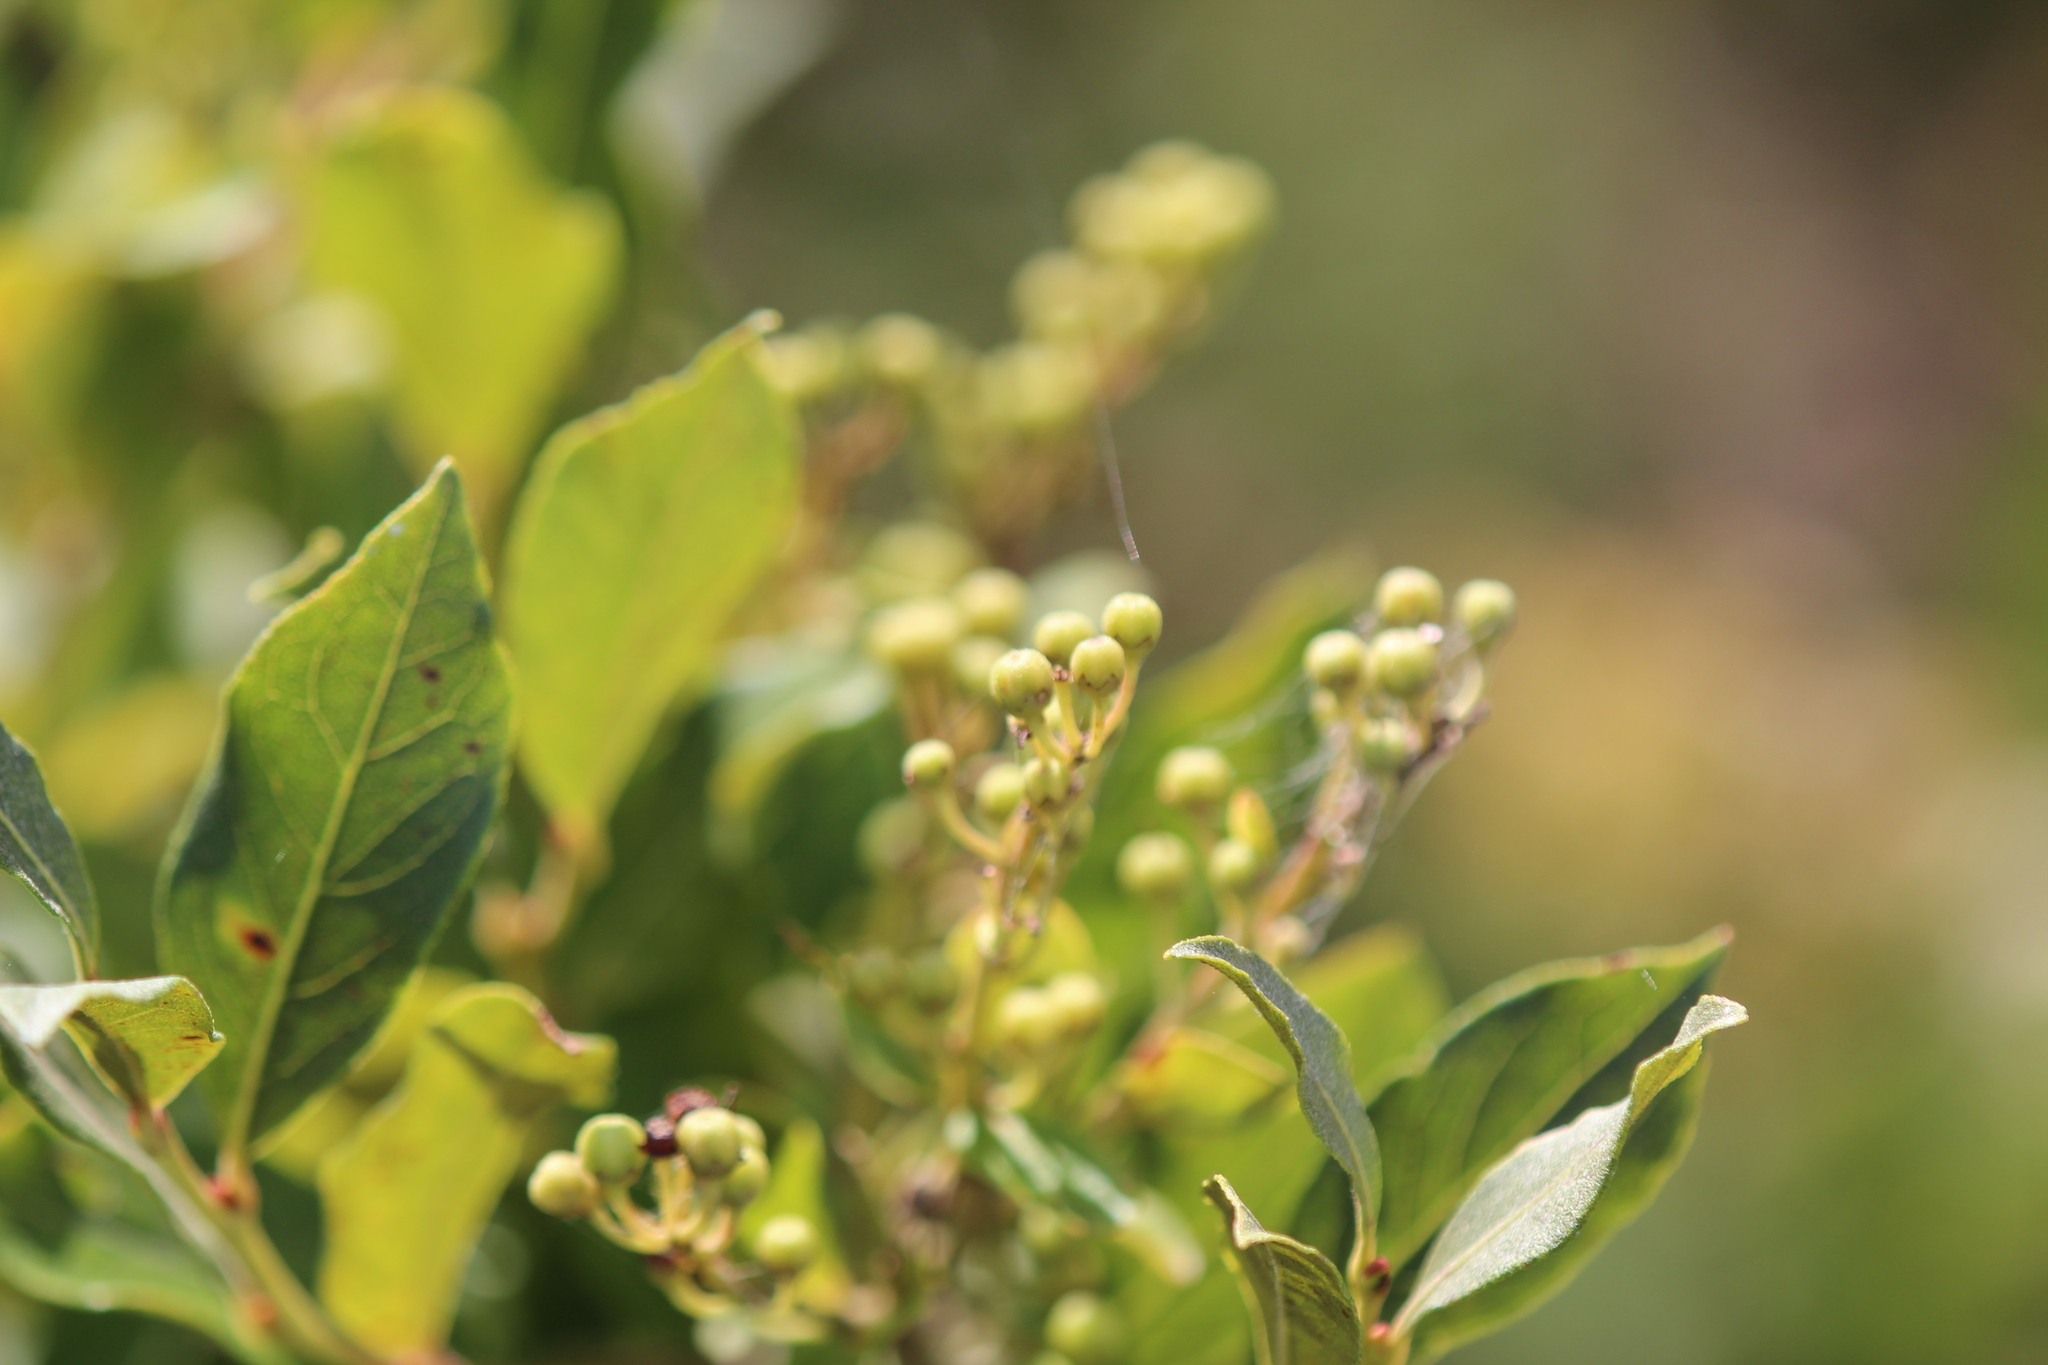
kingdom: Plantae
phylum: Tracheophyta
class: Magnoliopsida
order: Ericales
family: Ericaceae
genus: Lyonia
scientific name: Lyonia ligustrina
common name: Maleberry
